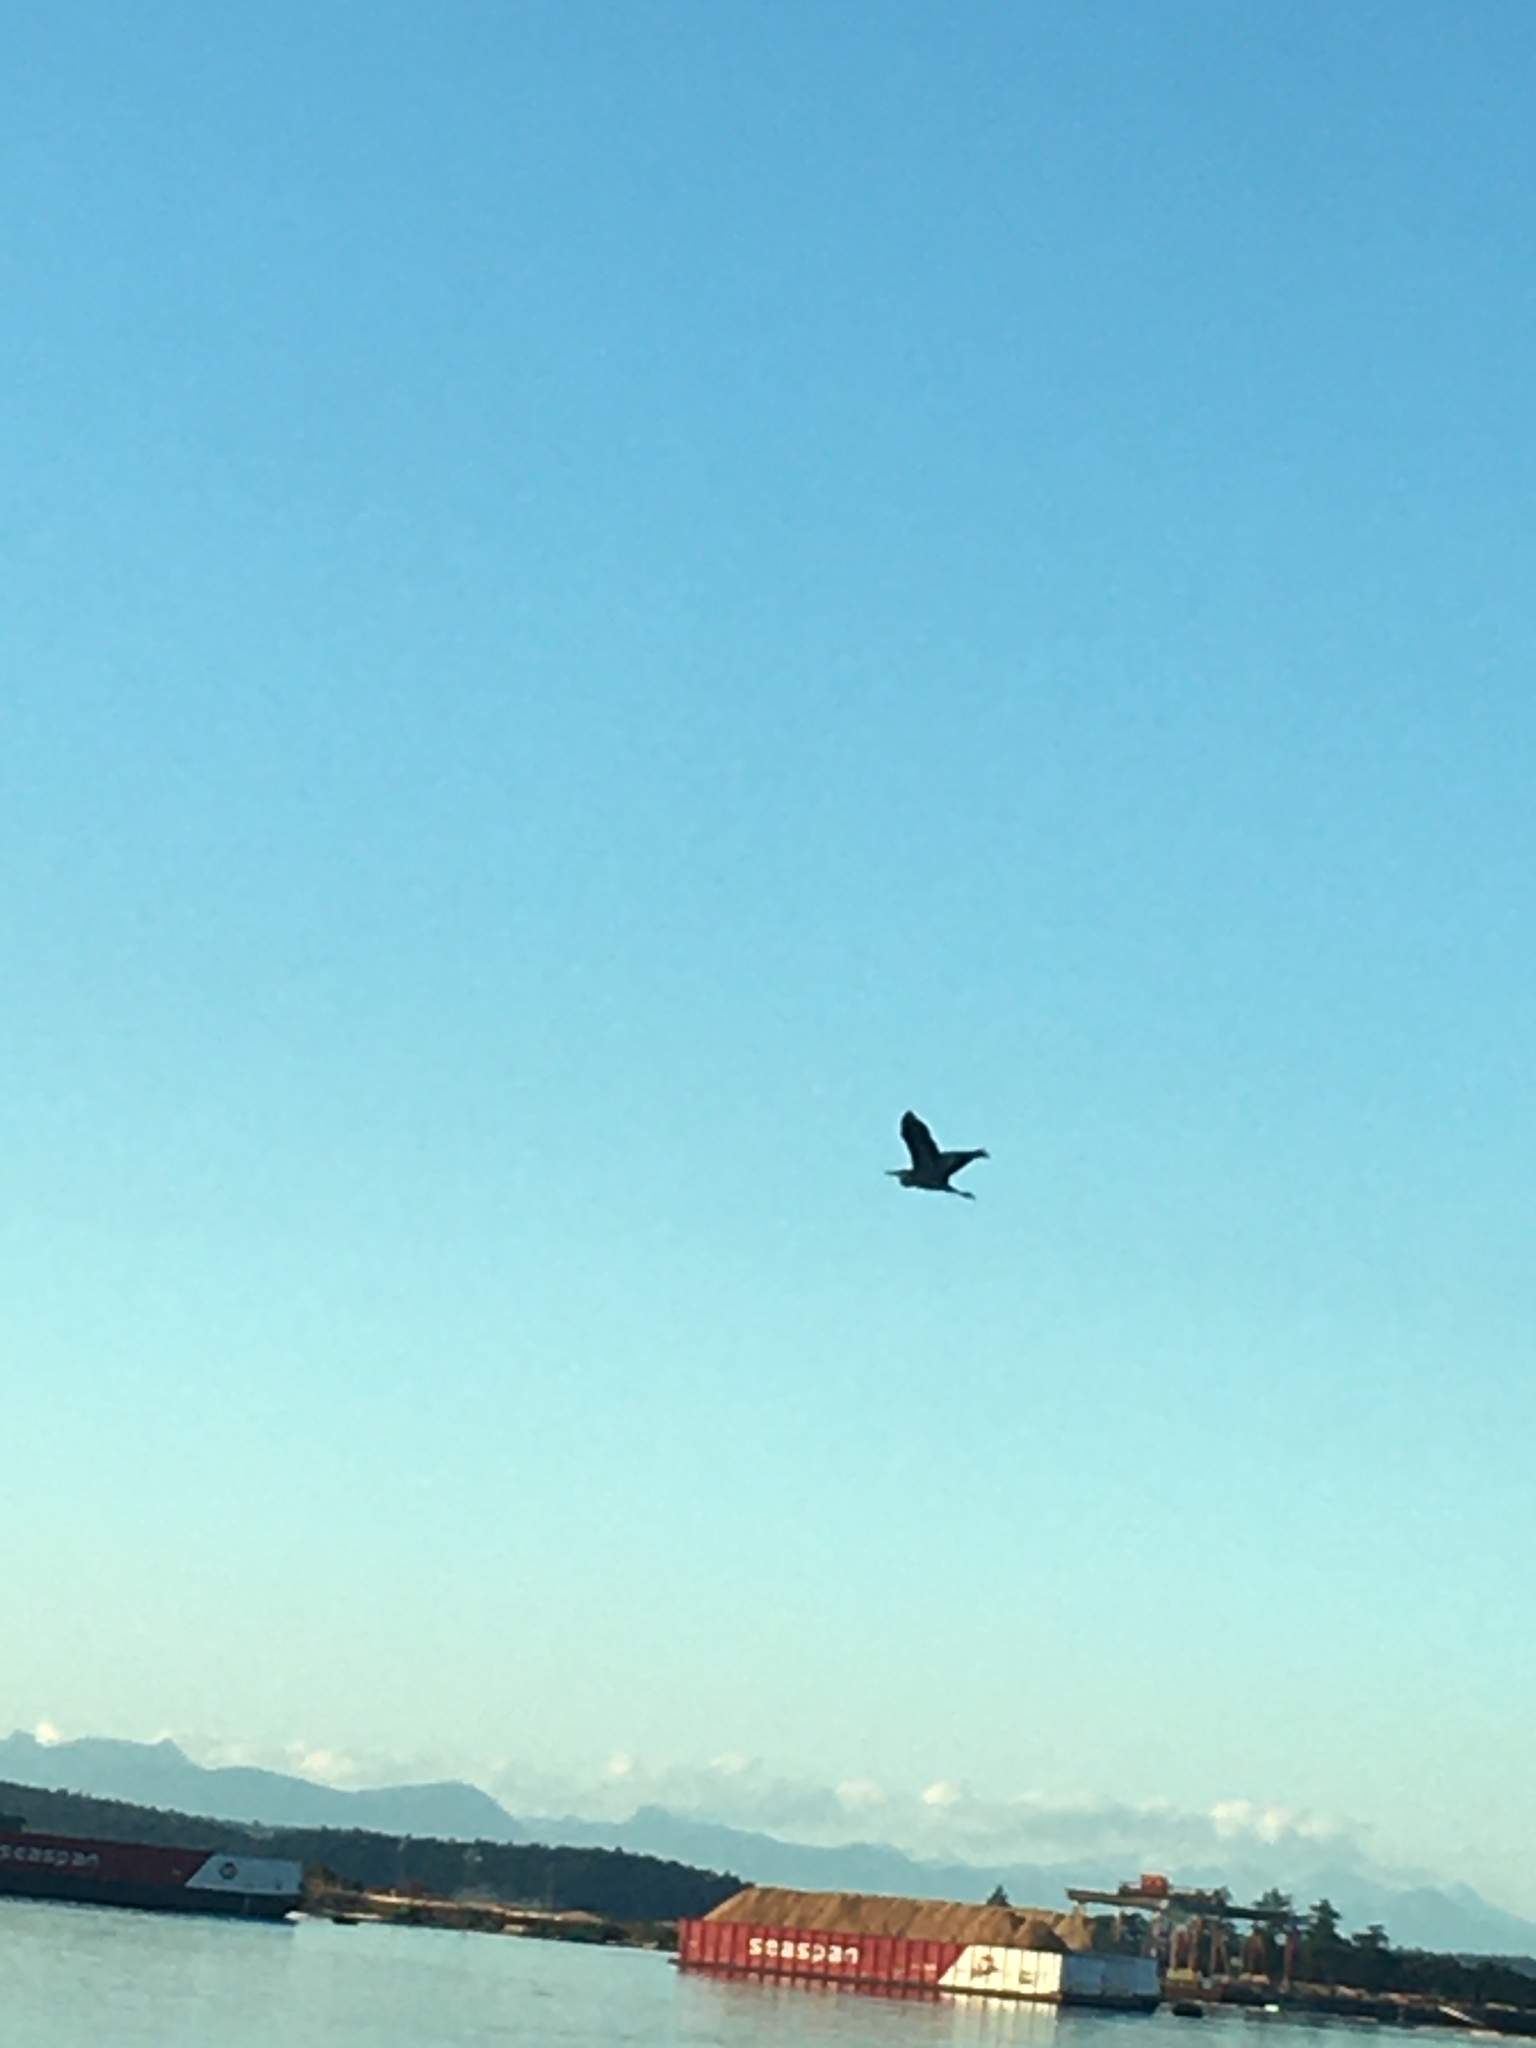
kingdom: Animalia
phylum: Chordata
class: Aves
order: Pelecaniformes
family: Ardeidae
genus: Ardea
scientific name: Ardea herodias
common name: Great blue heron
